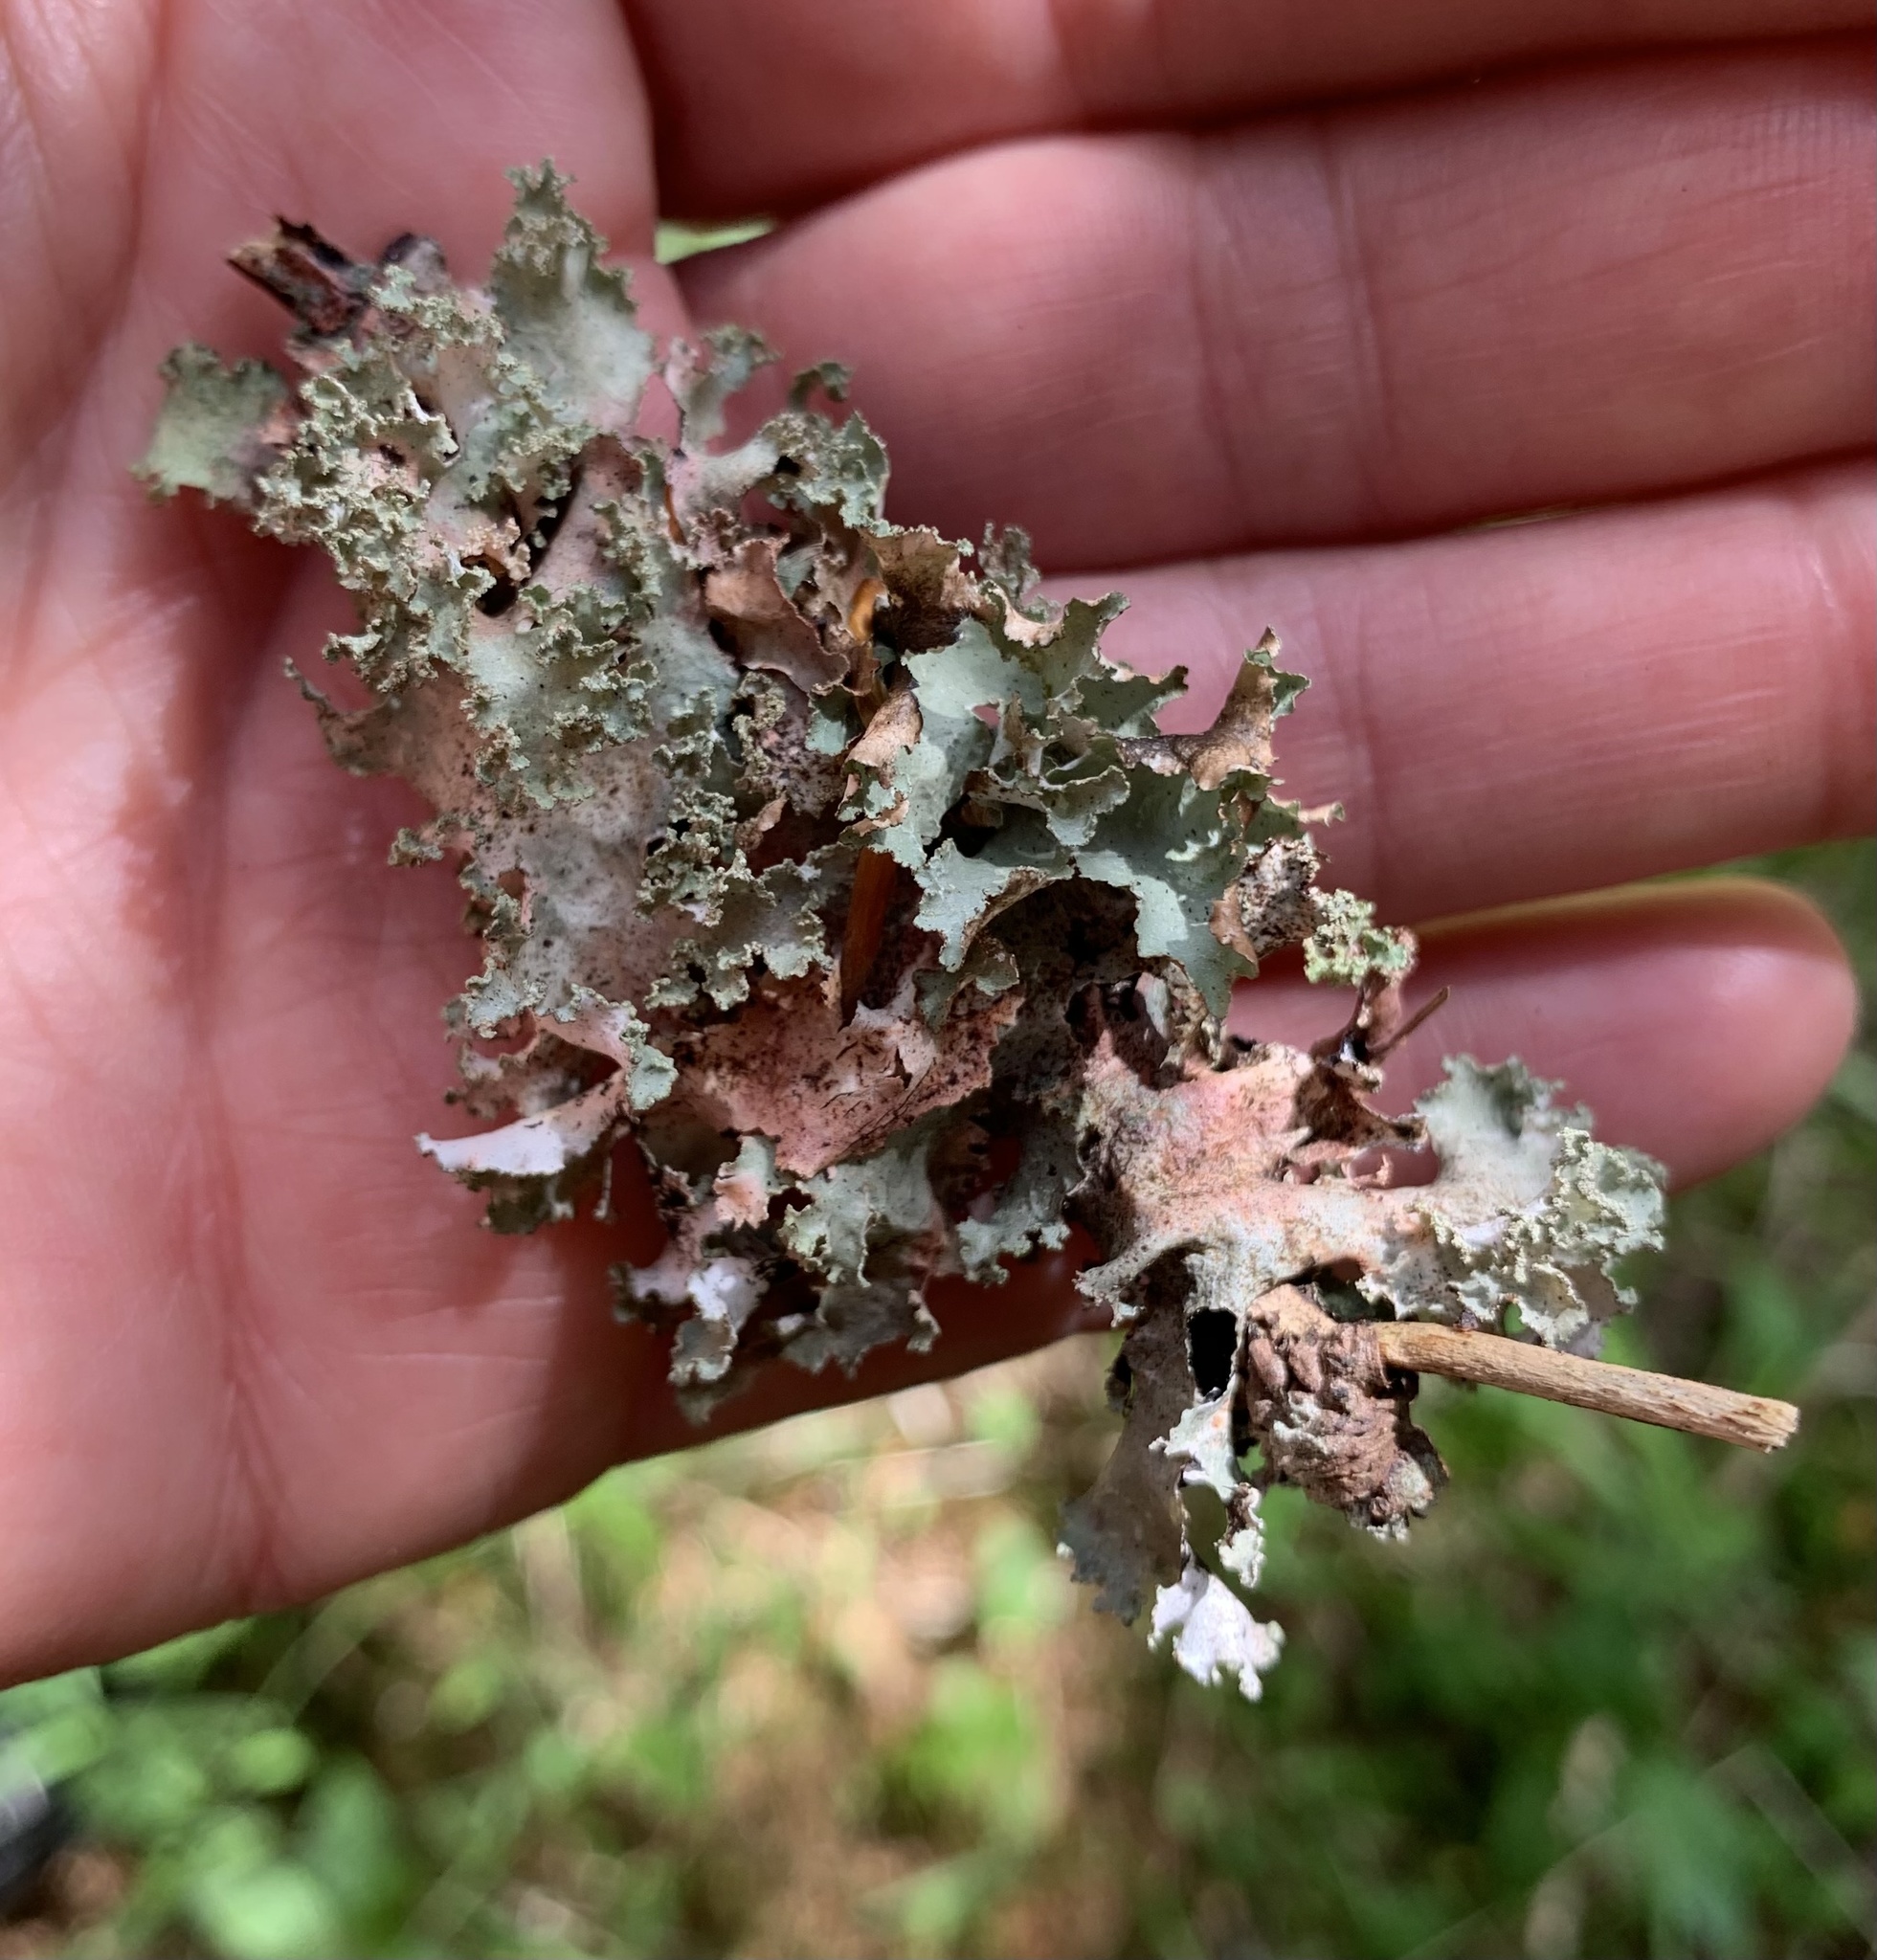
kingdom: Fungi
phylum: Ascomycota
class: Lecanoromycetes
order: Lecanorales
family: Parmeliaceae
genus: Platismatia
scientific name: Platismatia glauca
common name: Varied rag lichen
